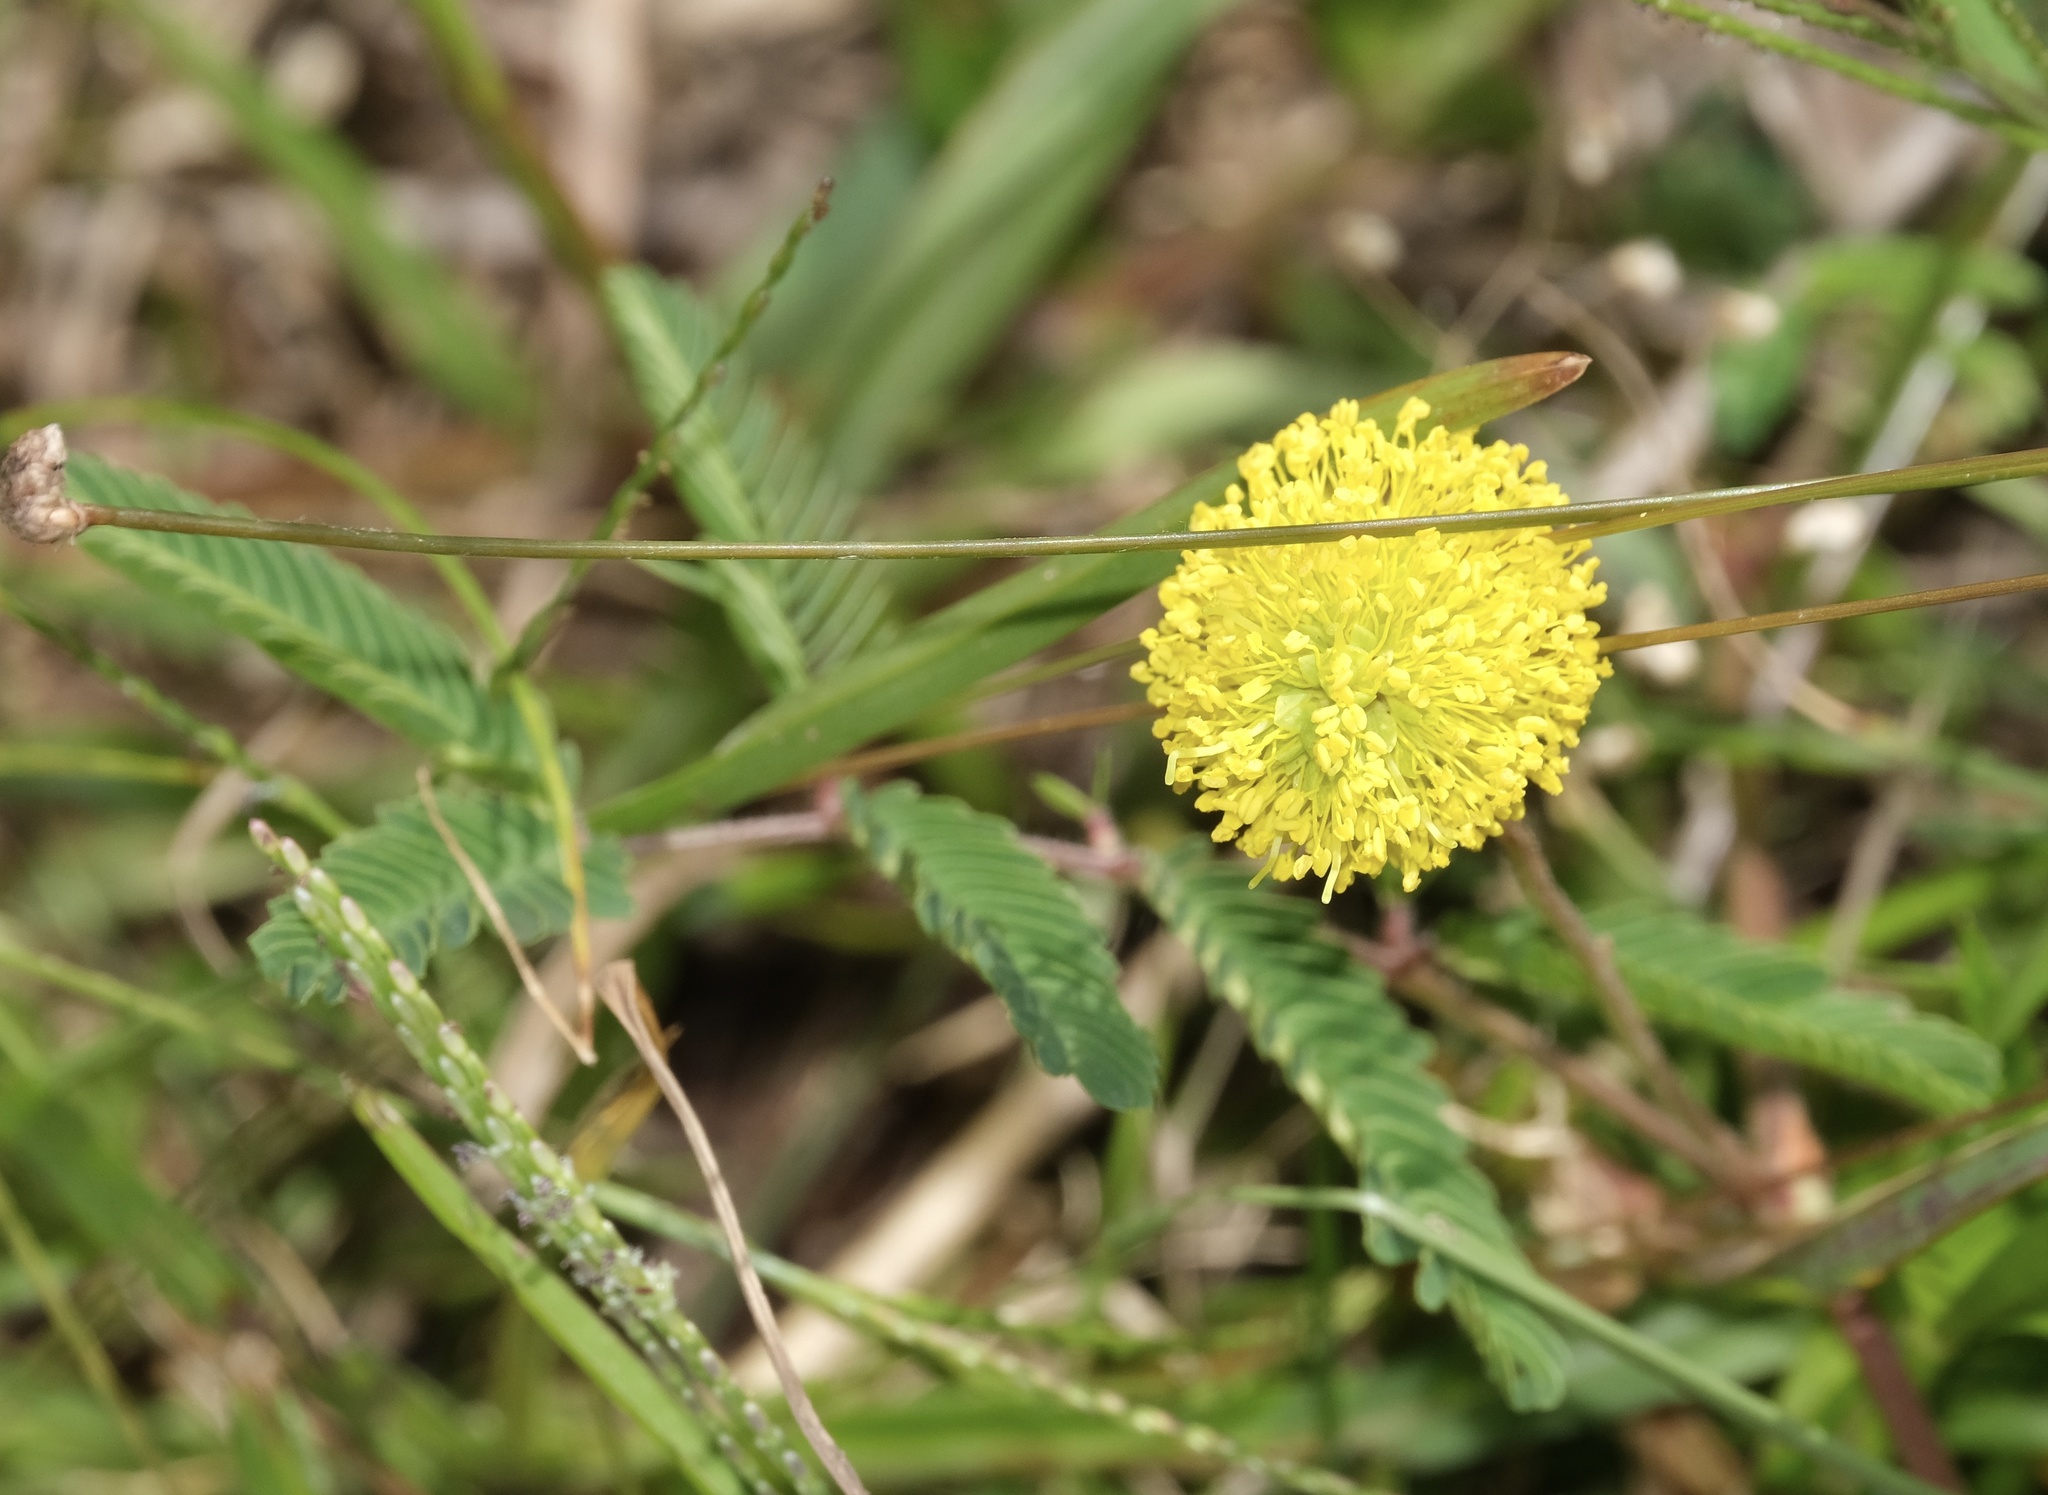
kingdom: Plantae
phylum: Tracheophyta
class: Magnoliopsida
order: Fabales
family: Fabaceae
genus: Neptunia
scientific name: Neptunia lutea
